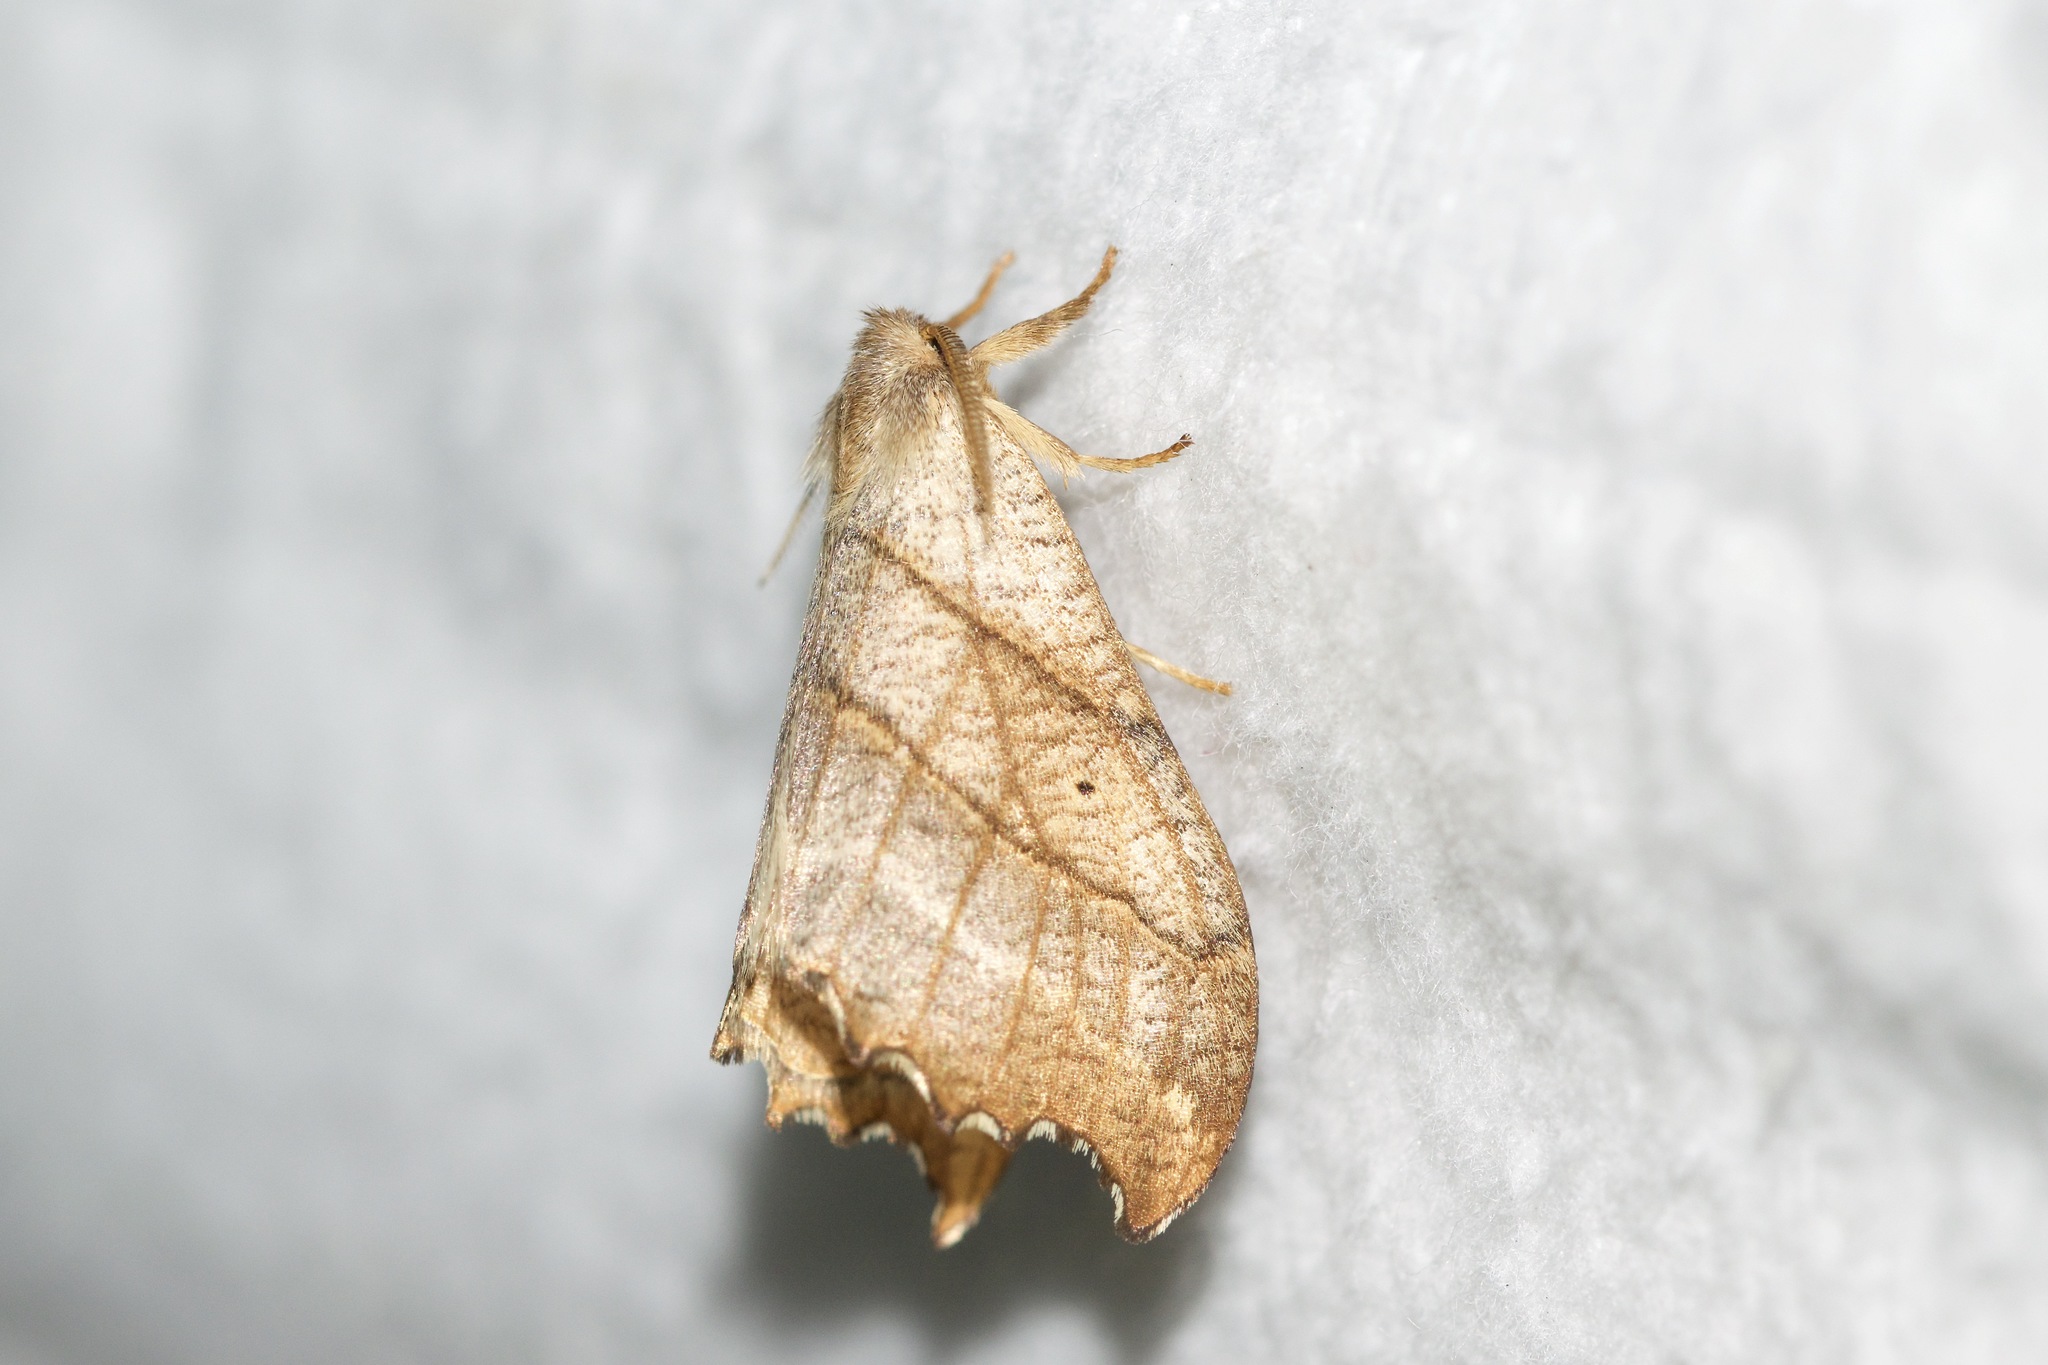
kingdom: Animalia
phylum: Arthropoda
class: Insecta
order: Lepidoptera
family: Drepanidae
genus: Falcaria
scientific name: Falcaria bilineata
